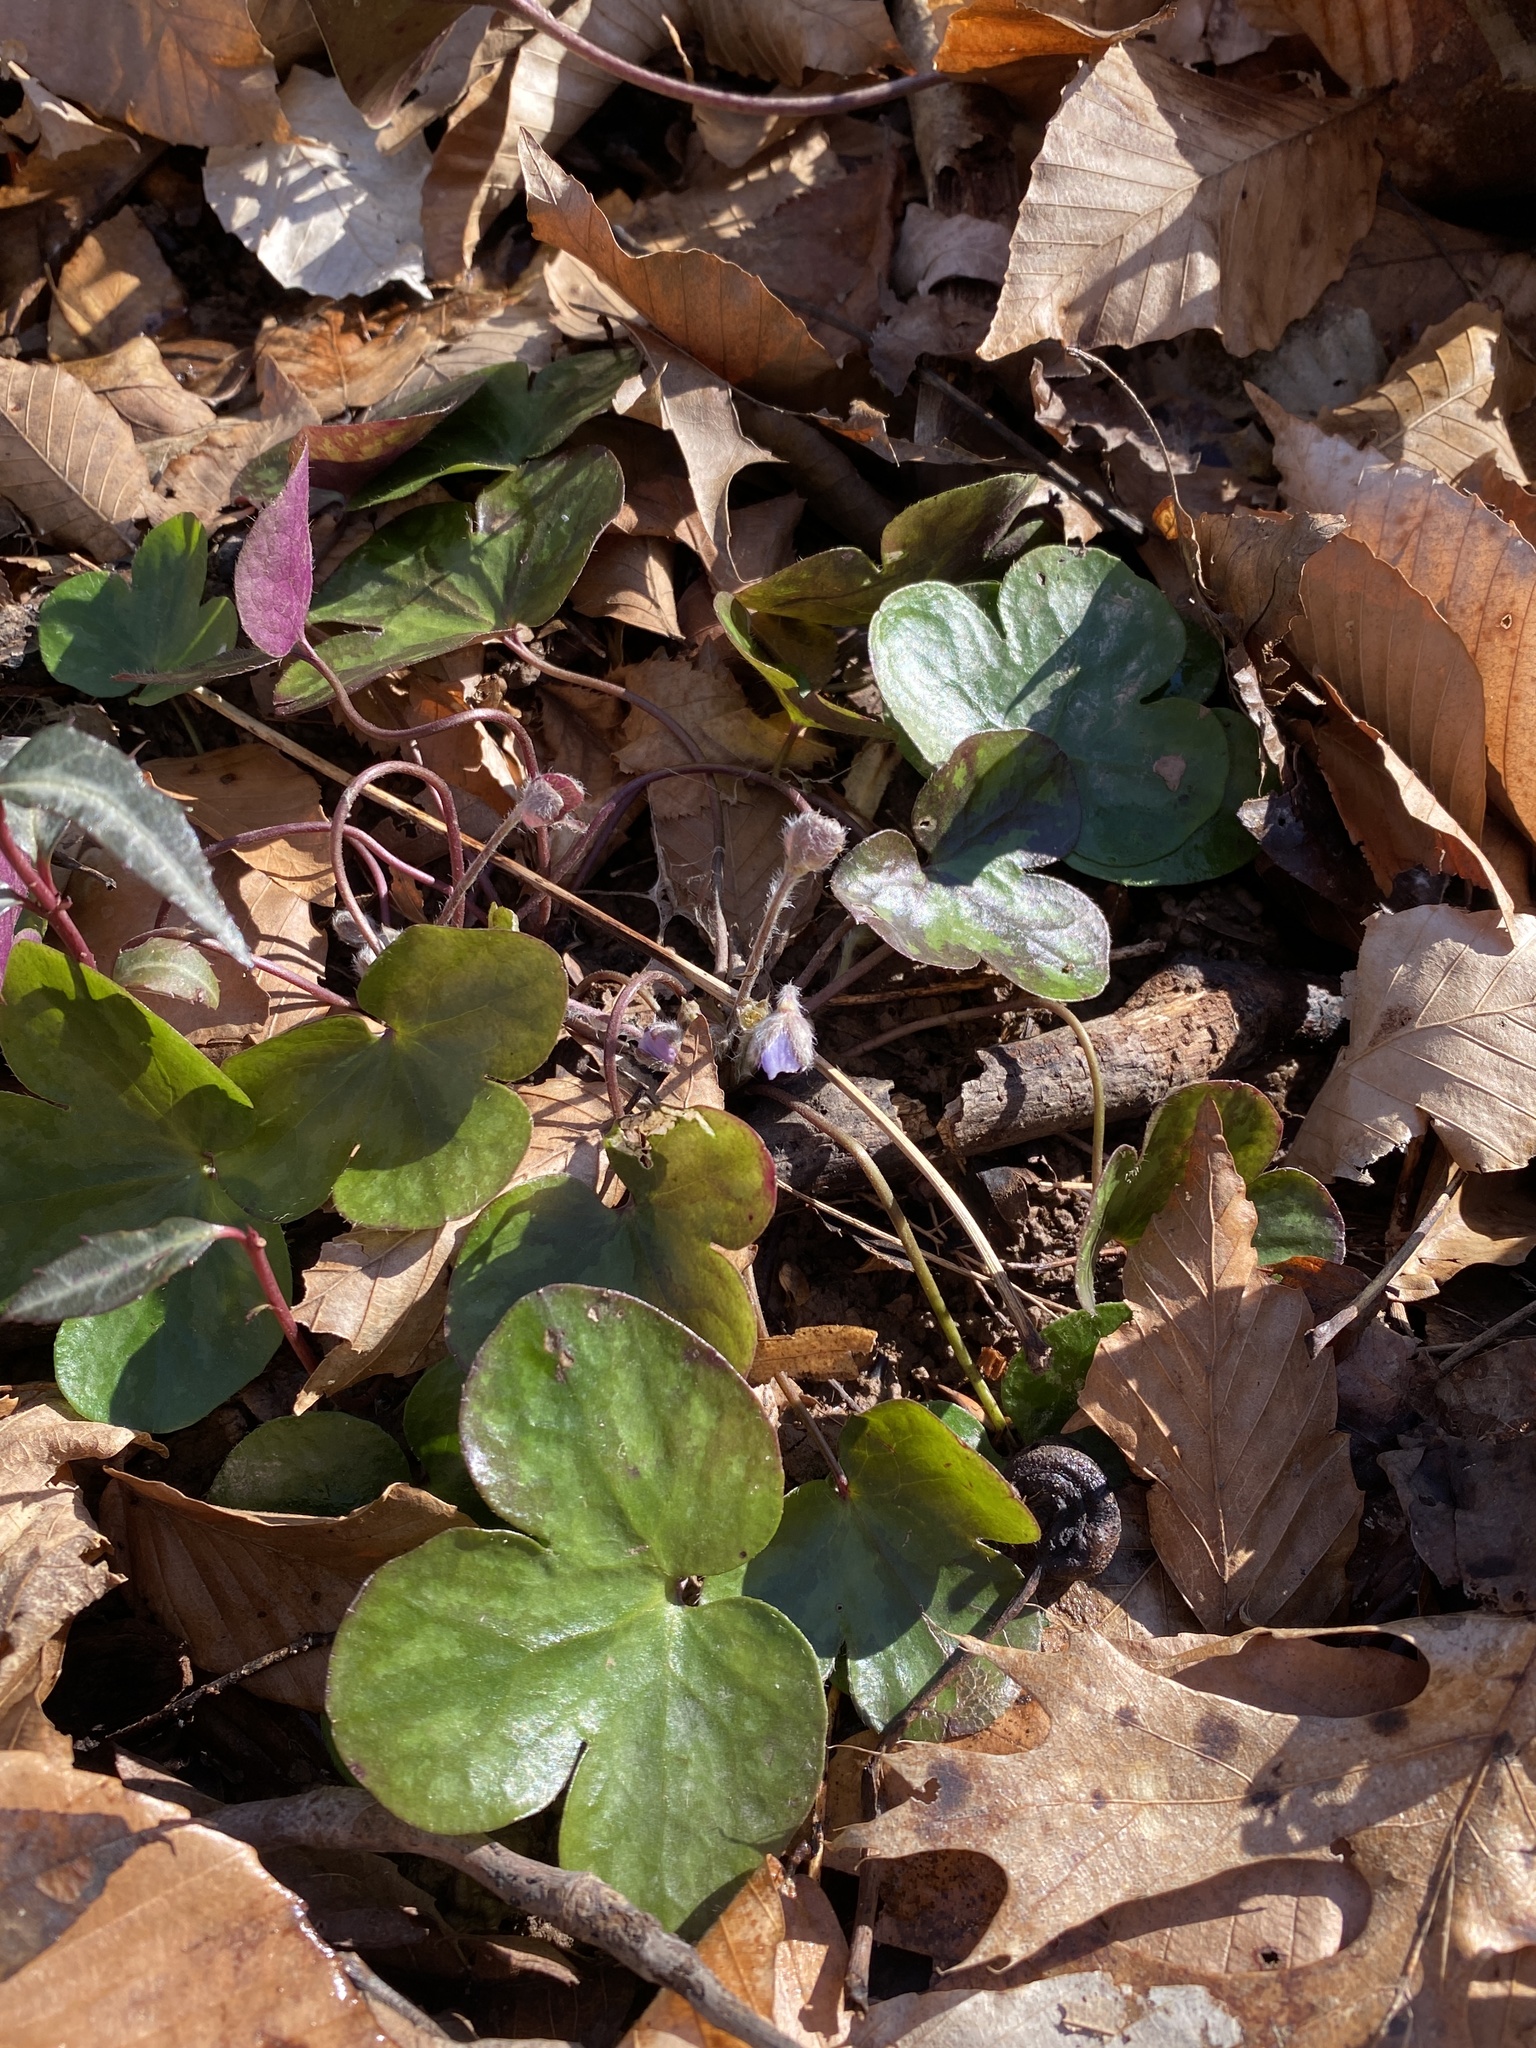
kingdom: Plantae
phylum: Tracheophyta
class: Magnoliopsida
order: Ranunculales
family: Ranunculaceae
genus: Hepatica
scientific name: Hepatica americana
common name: American hepatica
